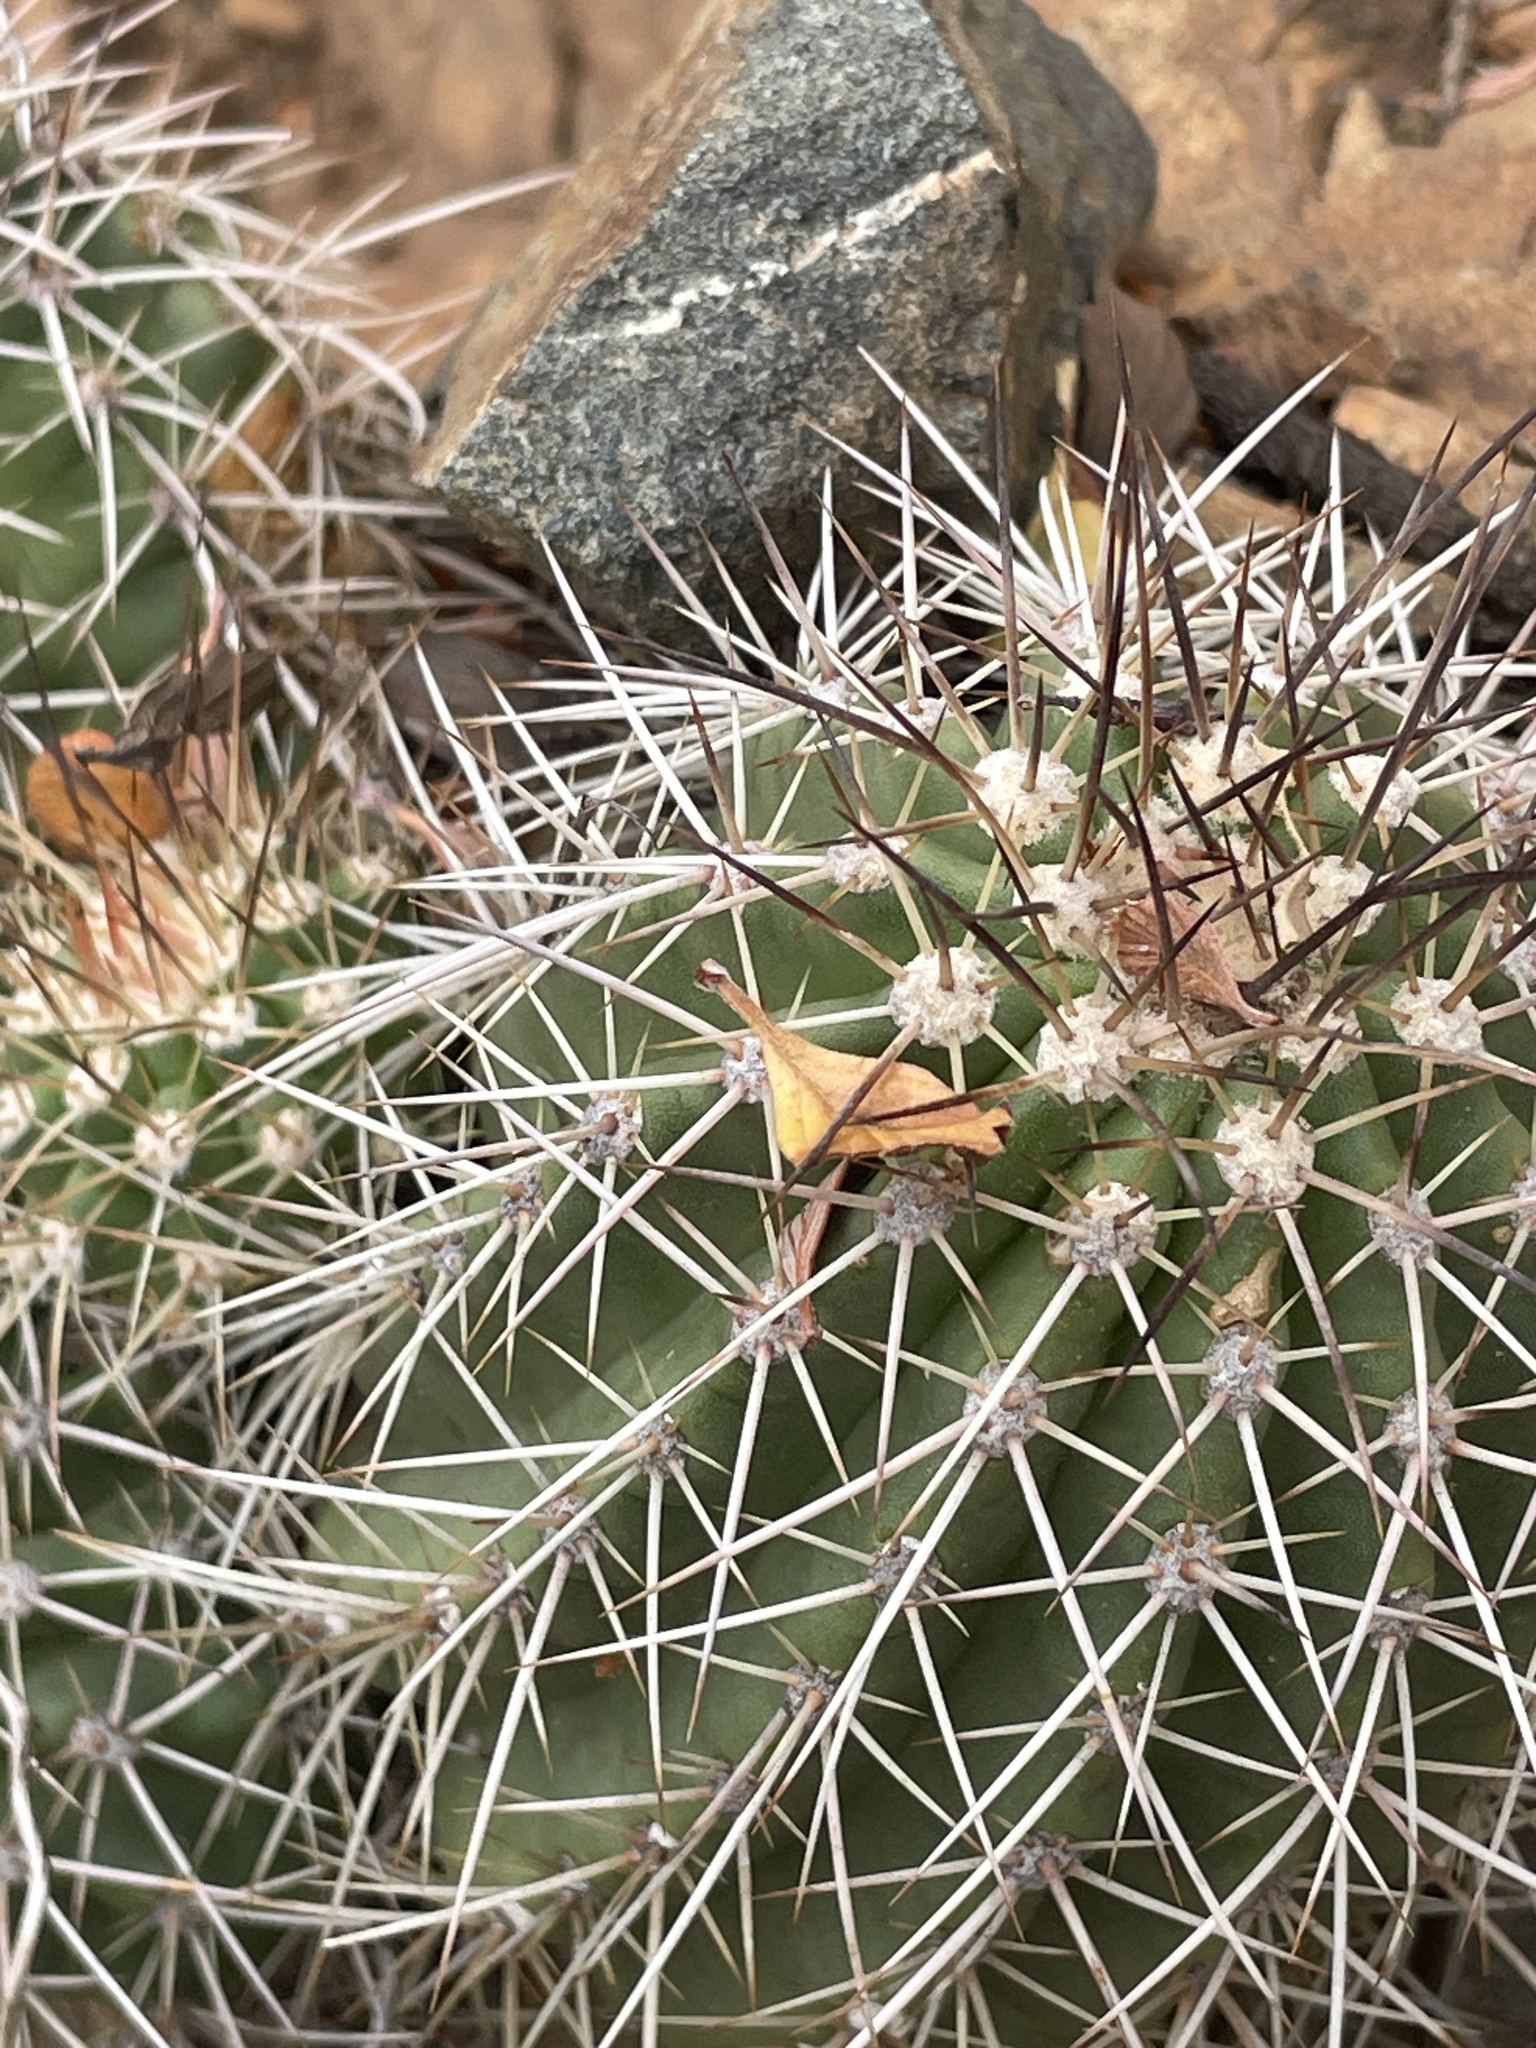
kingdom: Plantae
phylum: Tracheophyta
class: Magnoliopsida
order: Caryophyllales
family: Cactaceae
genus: Echinocereus
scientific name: Echinocereus yavapaiensis
